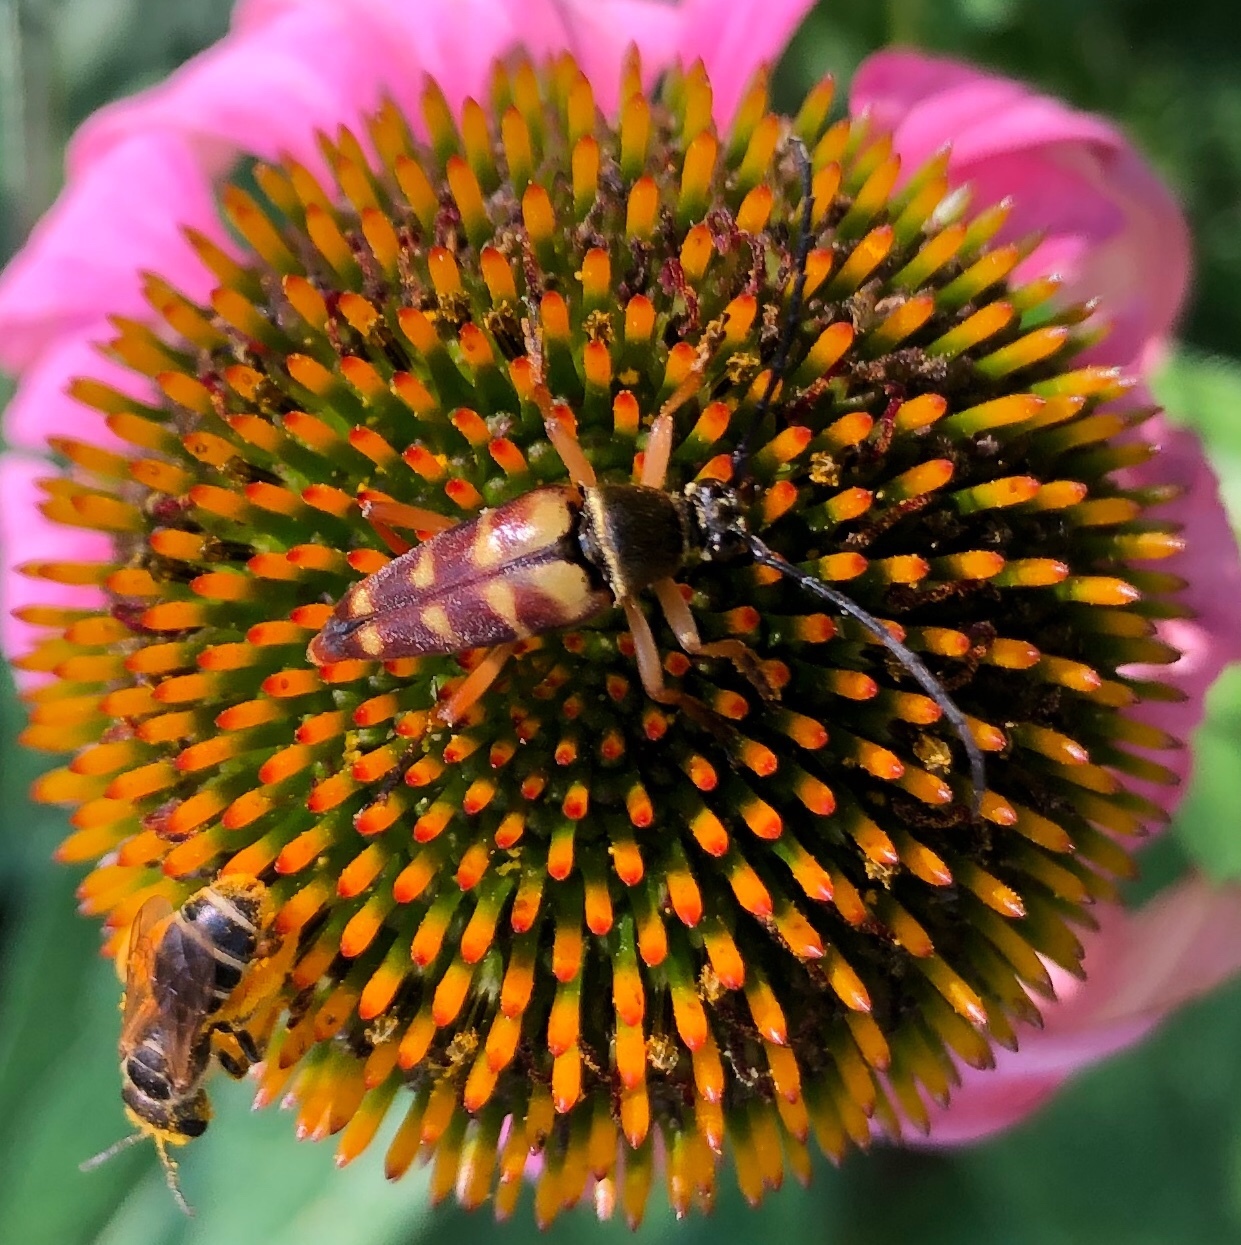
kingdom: Animalia
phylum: Arthropoda
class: Insecta
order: Coleoptera
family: Cerambycidae
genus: Typocerus
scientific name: Typocerus velutinus
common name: Banded longhorn beetle
